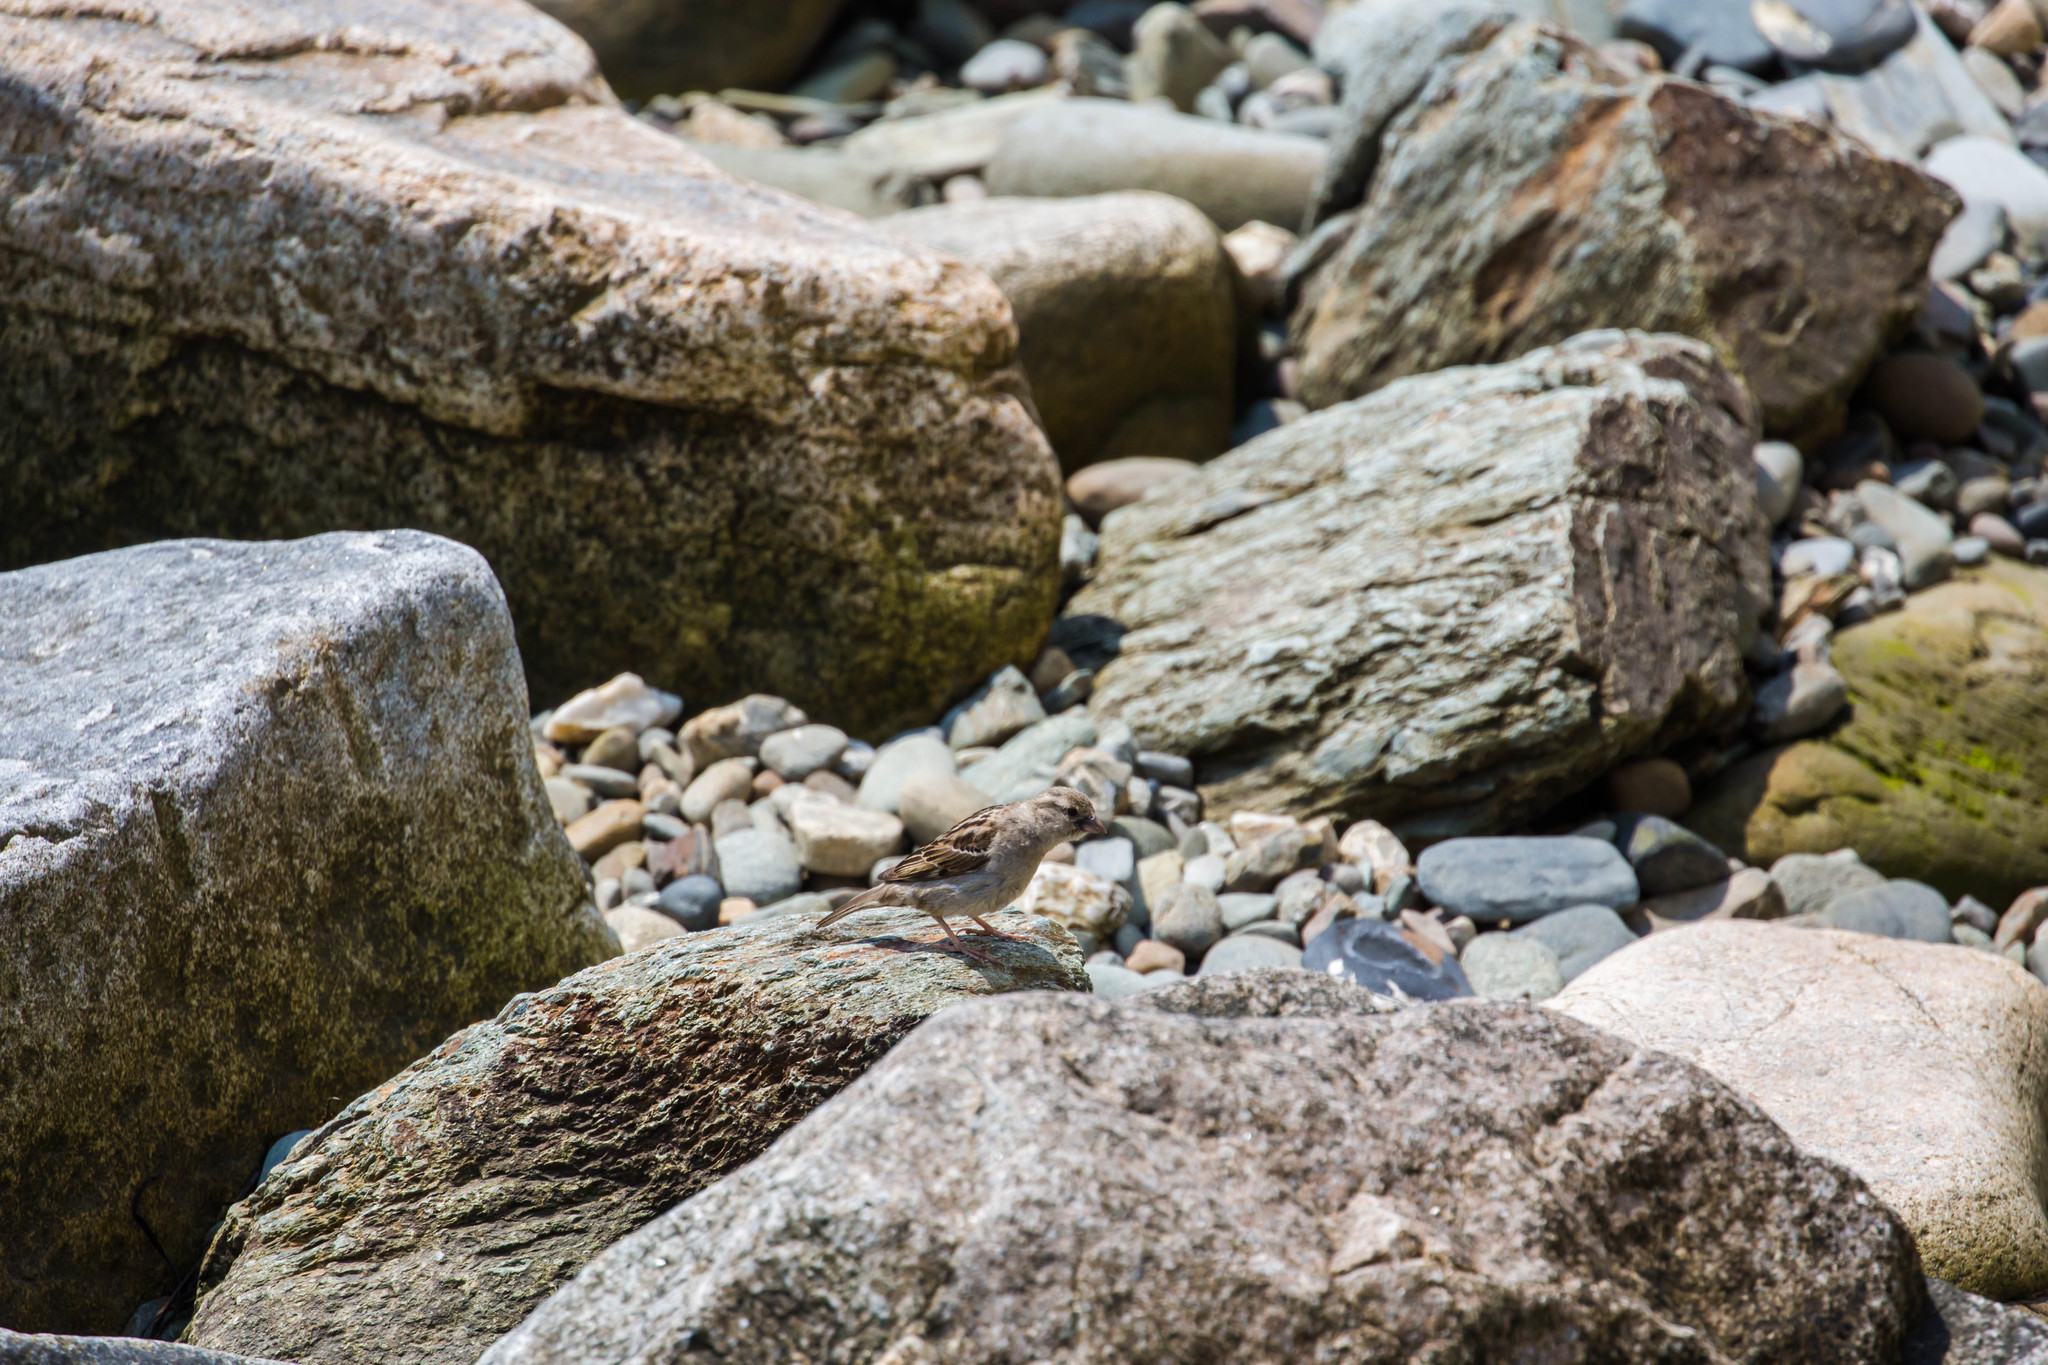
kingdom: Animalia
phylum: Chordata
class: Aves
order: Passeriformes
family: Passeridae
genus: Passer
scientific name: Passer domesticus
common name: House sparrow
